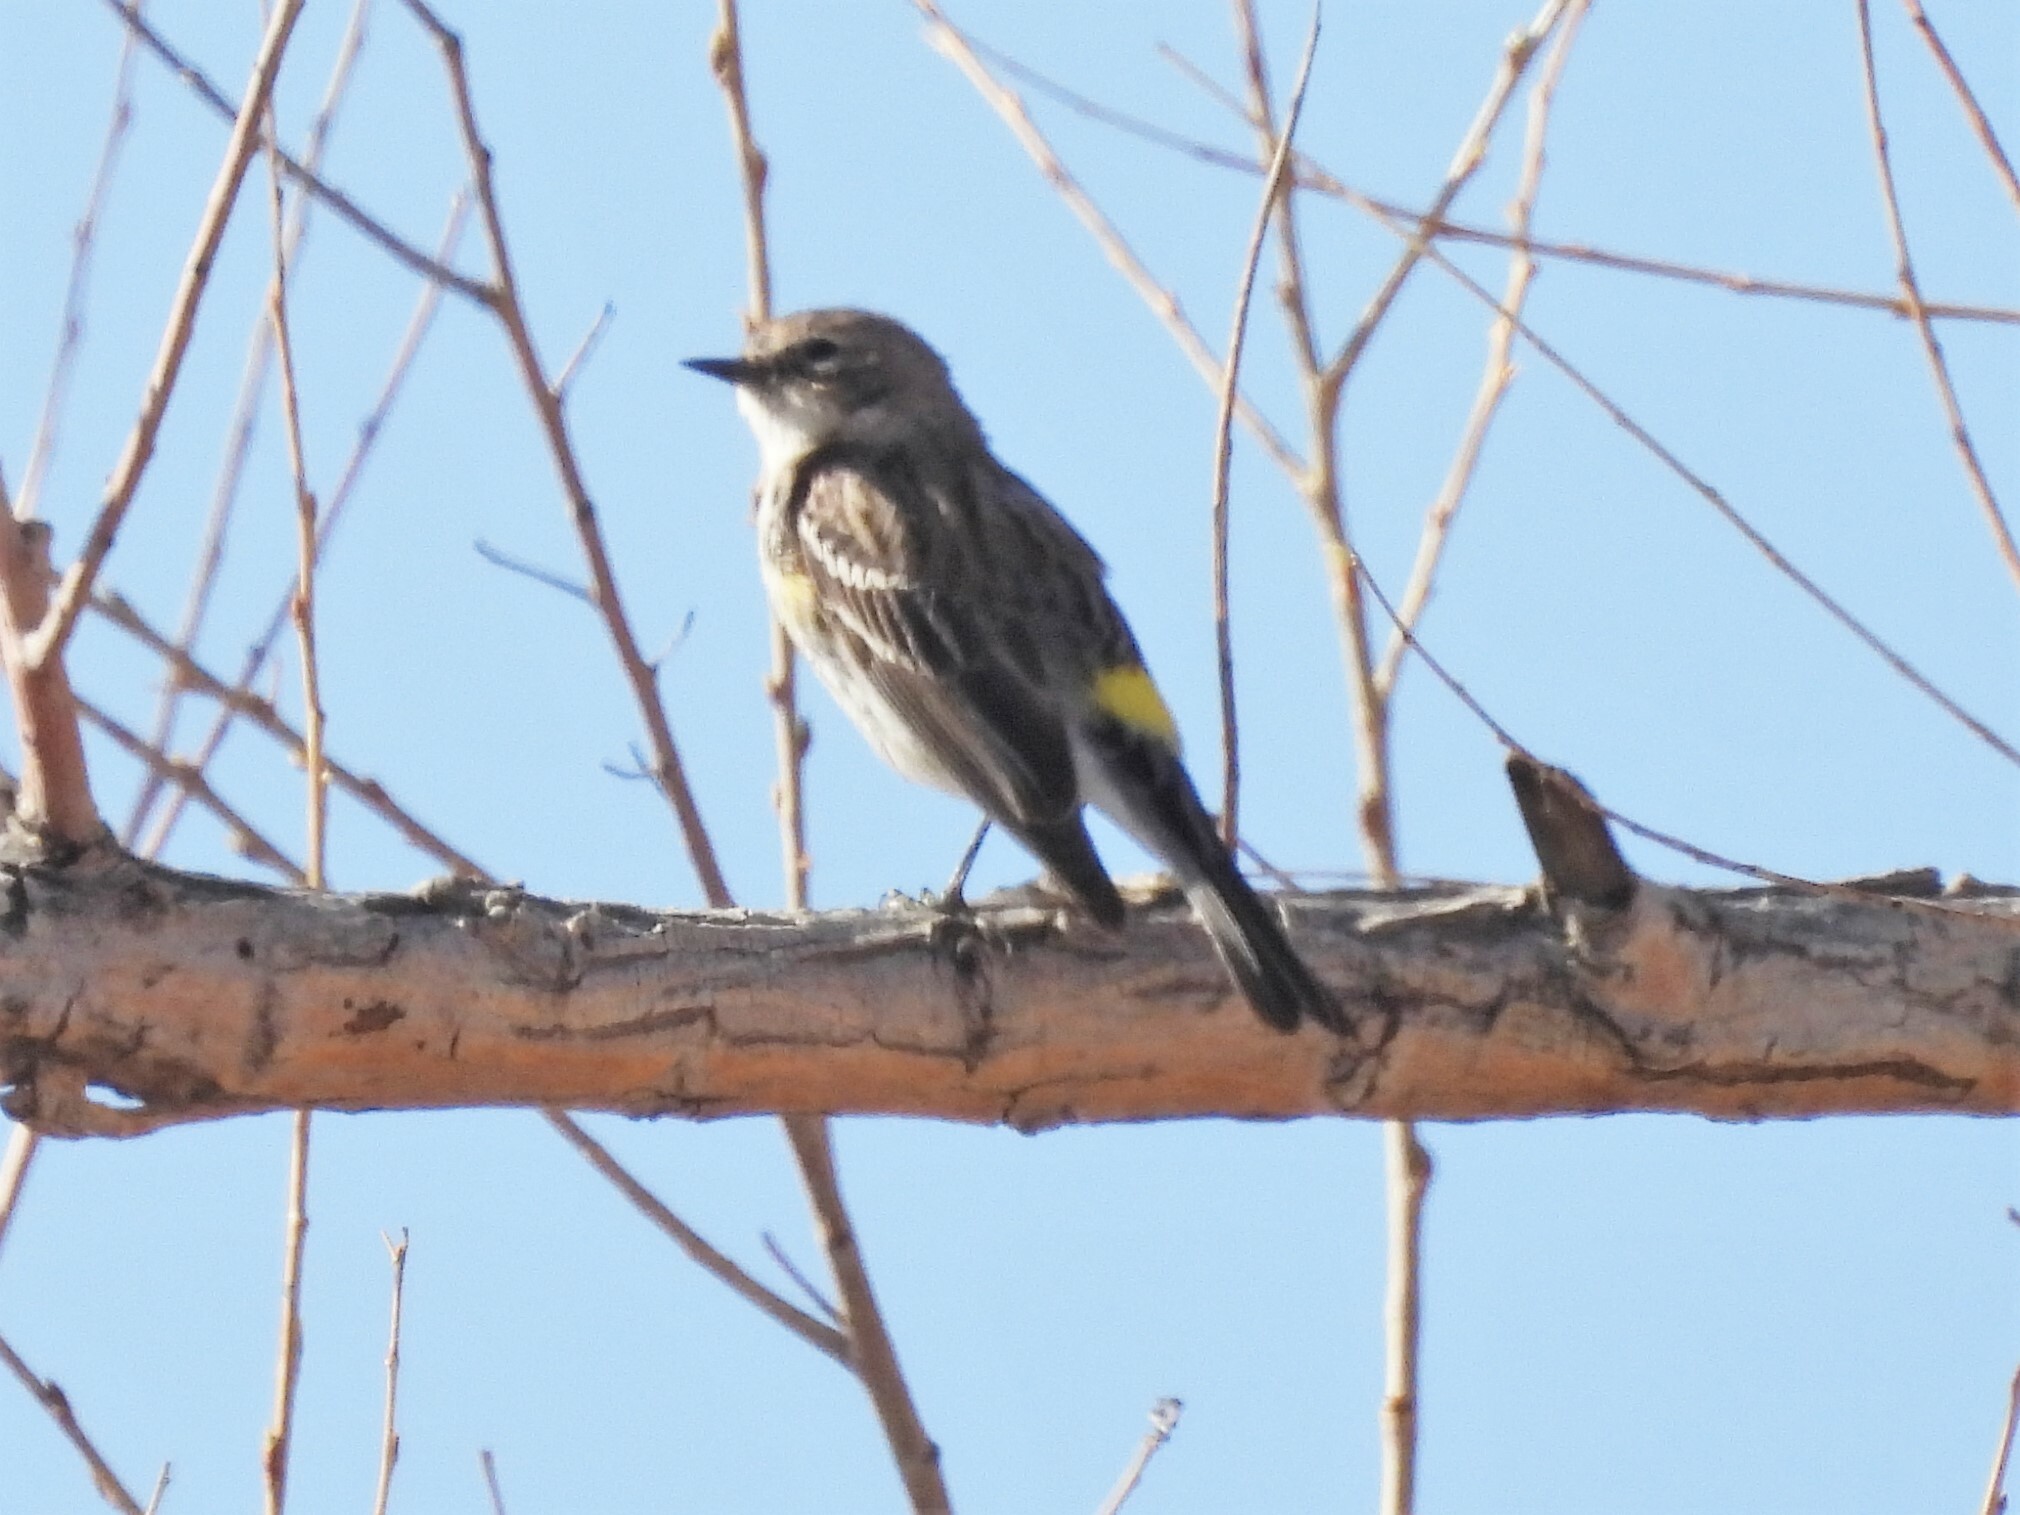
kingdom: Animalia
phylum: Chordata
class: Aves
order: Passeriformes
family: Parulidae
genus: Setophaga
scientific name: Setophaga coronata
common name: Myrtle warbler
